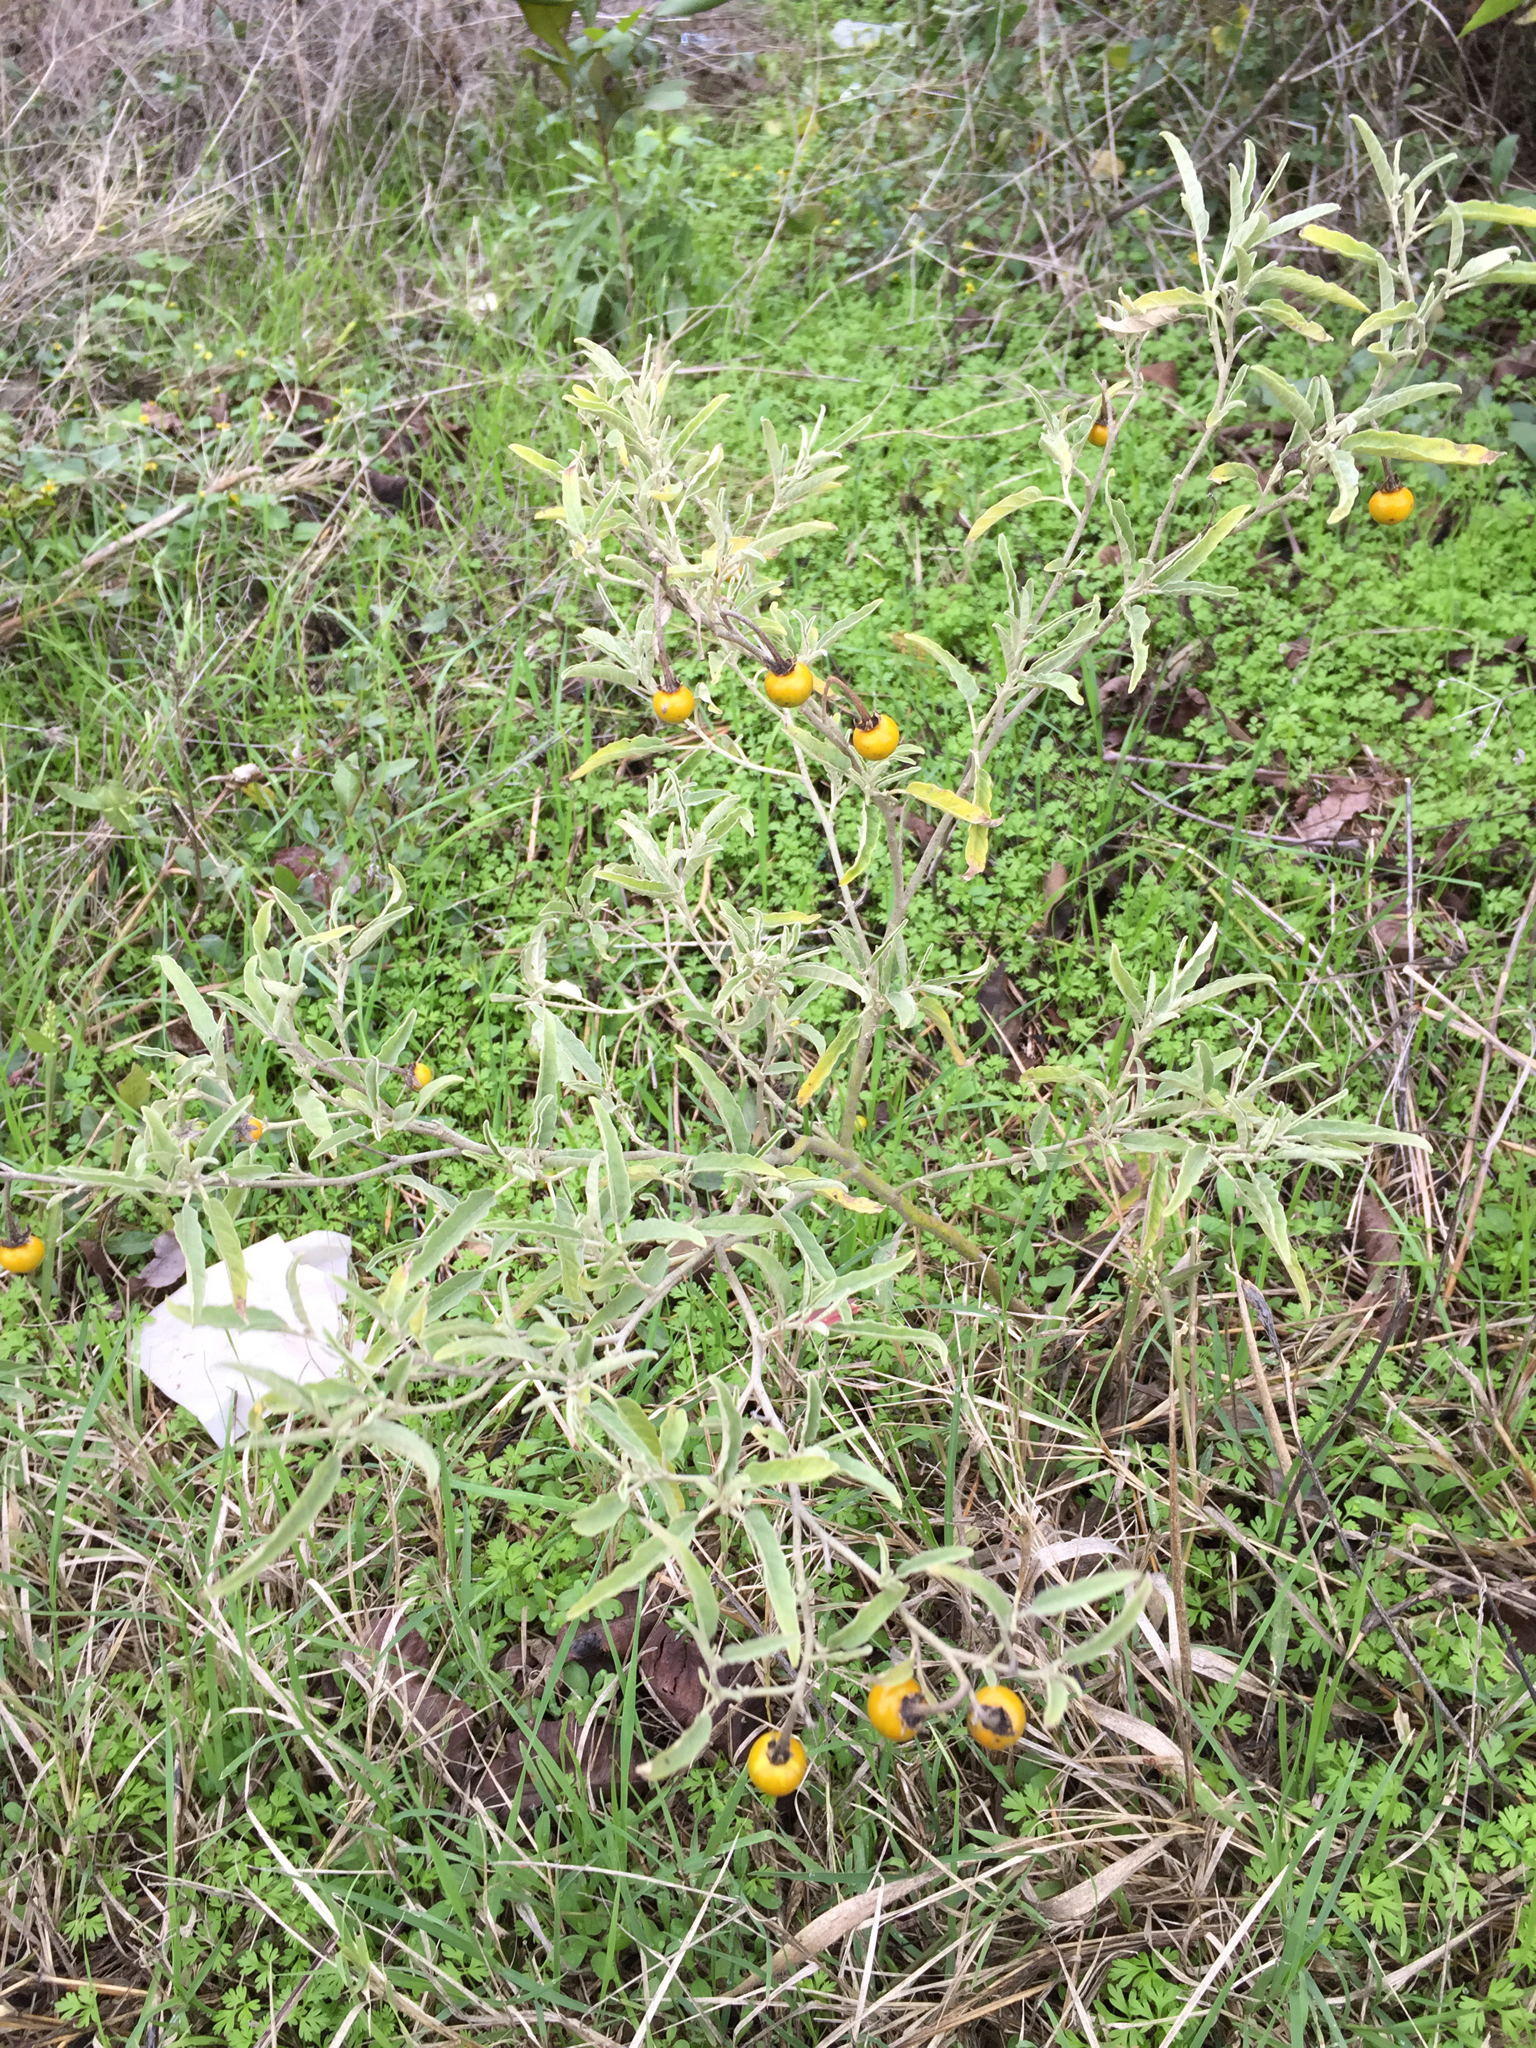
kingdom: Plantae
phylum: Tracheophyta
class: Magnoliopsida
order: Solanales
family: Solanaceae
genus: Solanum
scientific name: Solanum elaeagnifolium
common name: Silverleaf nightshade
